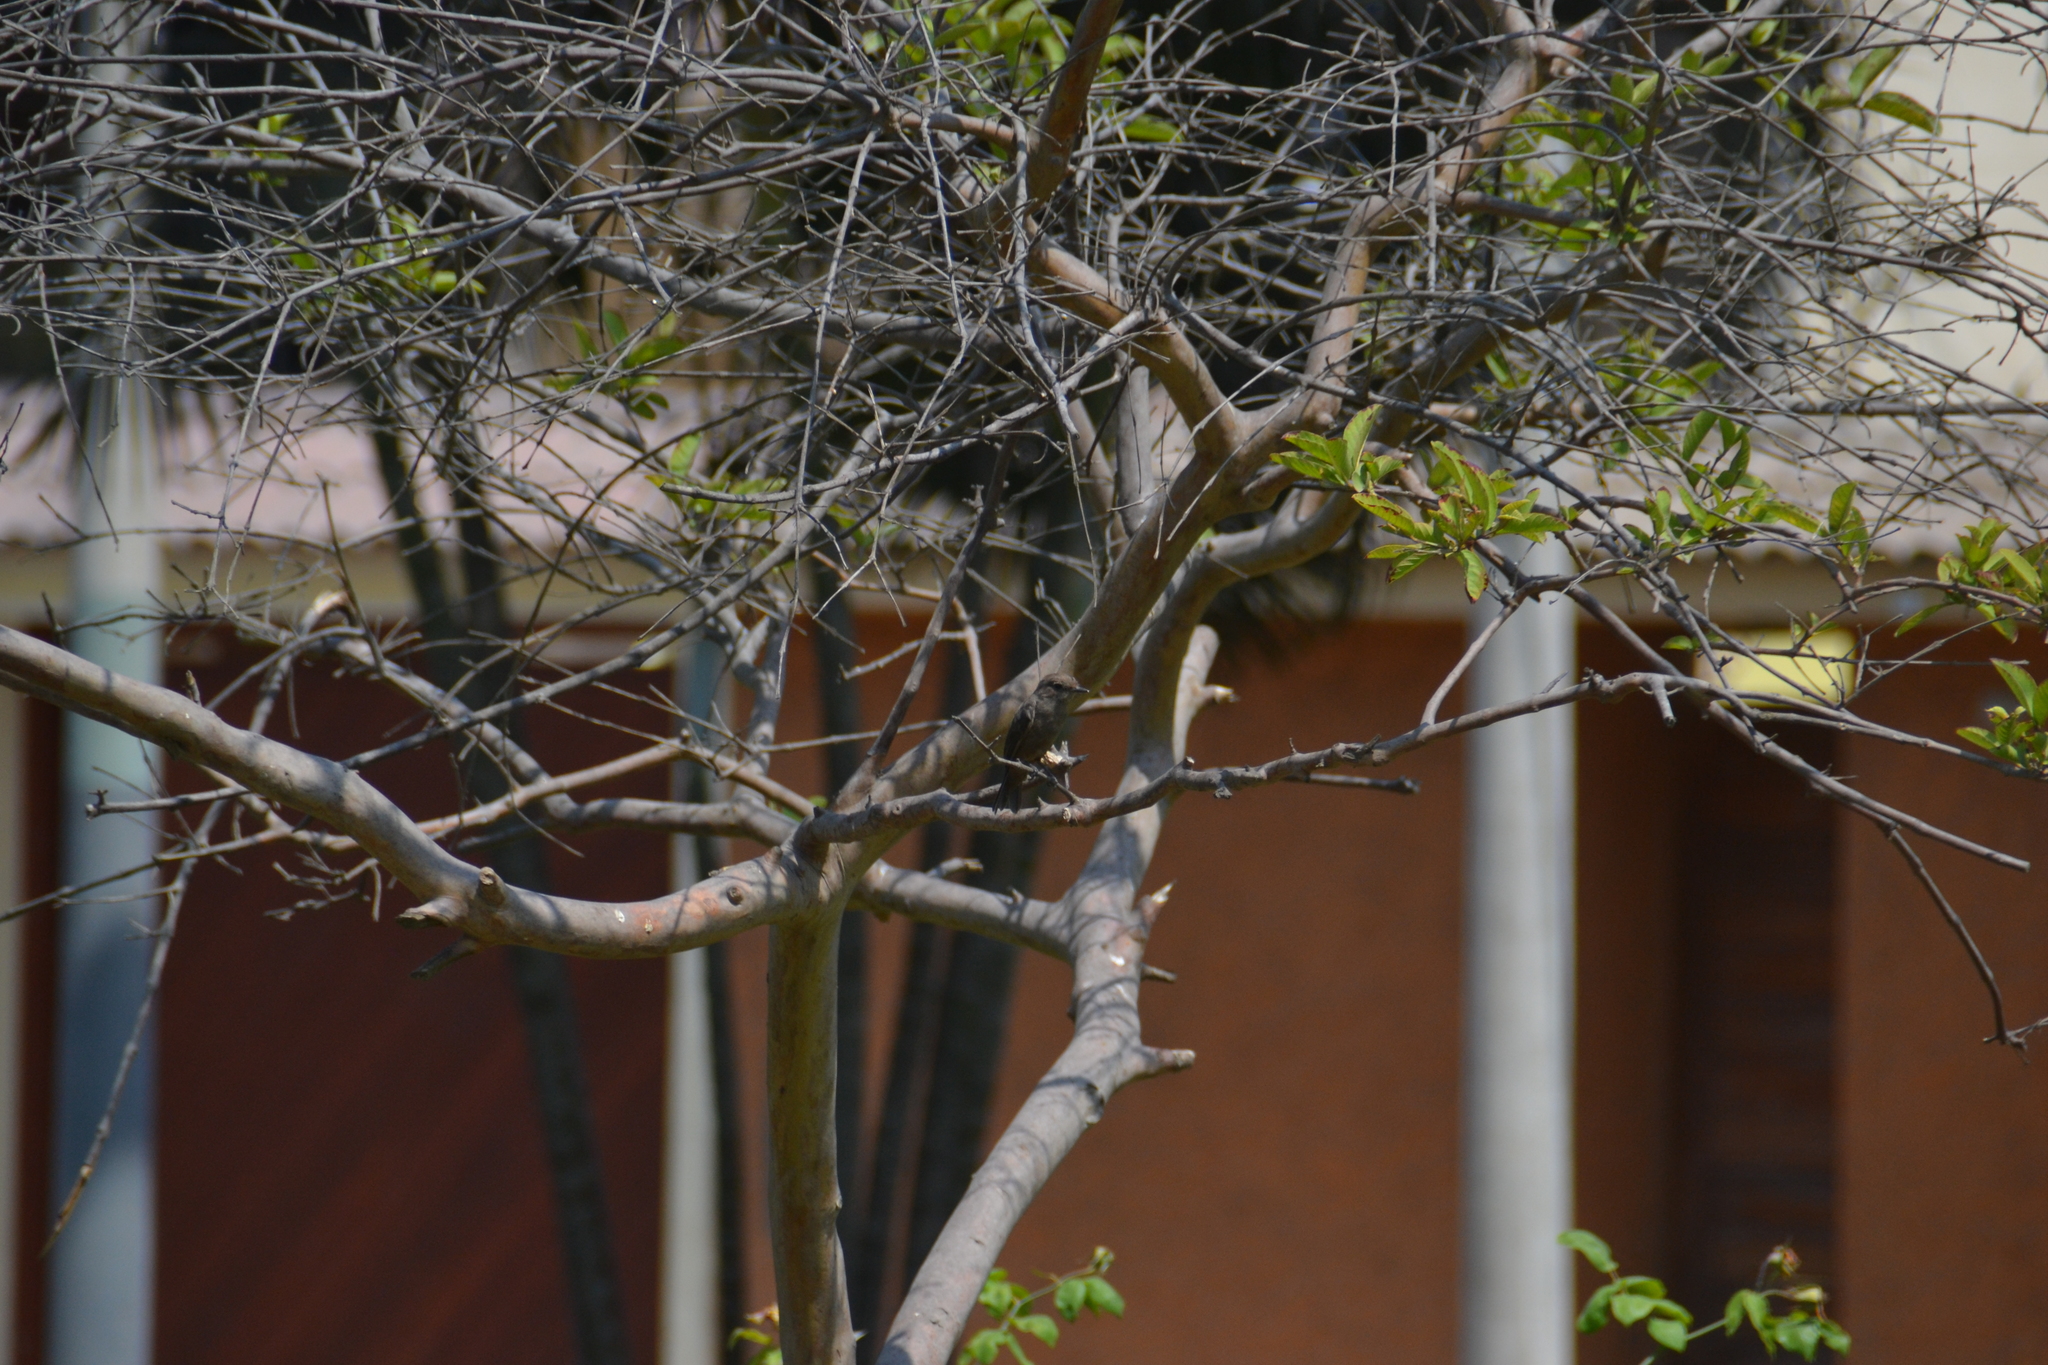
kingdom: Animalia
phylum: Chordata
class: Aves
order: Passeriformes
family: Tyrannidae
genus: Pyrocephalus
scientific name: Pyrocephalus rubinus
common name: Vermilion flycatcher
